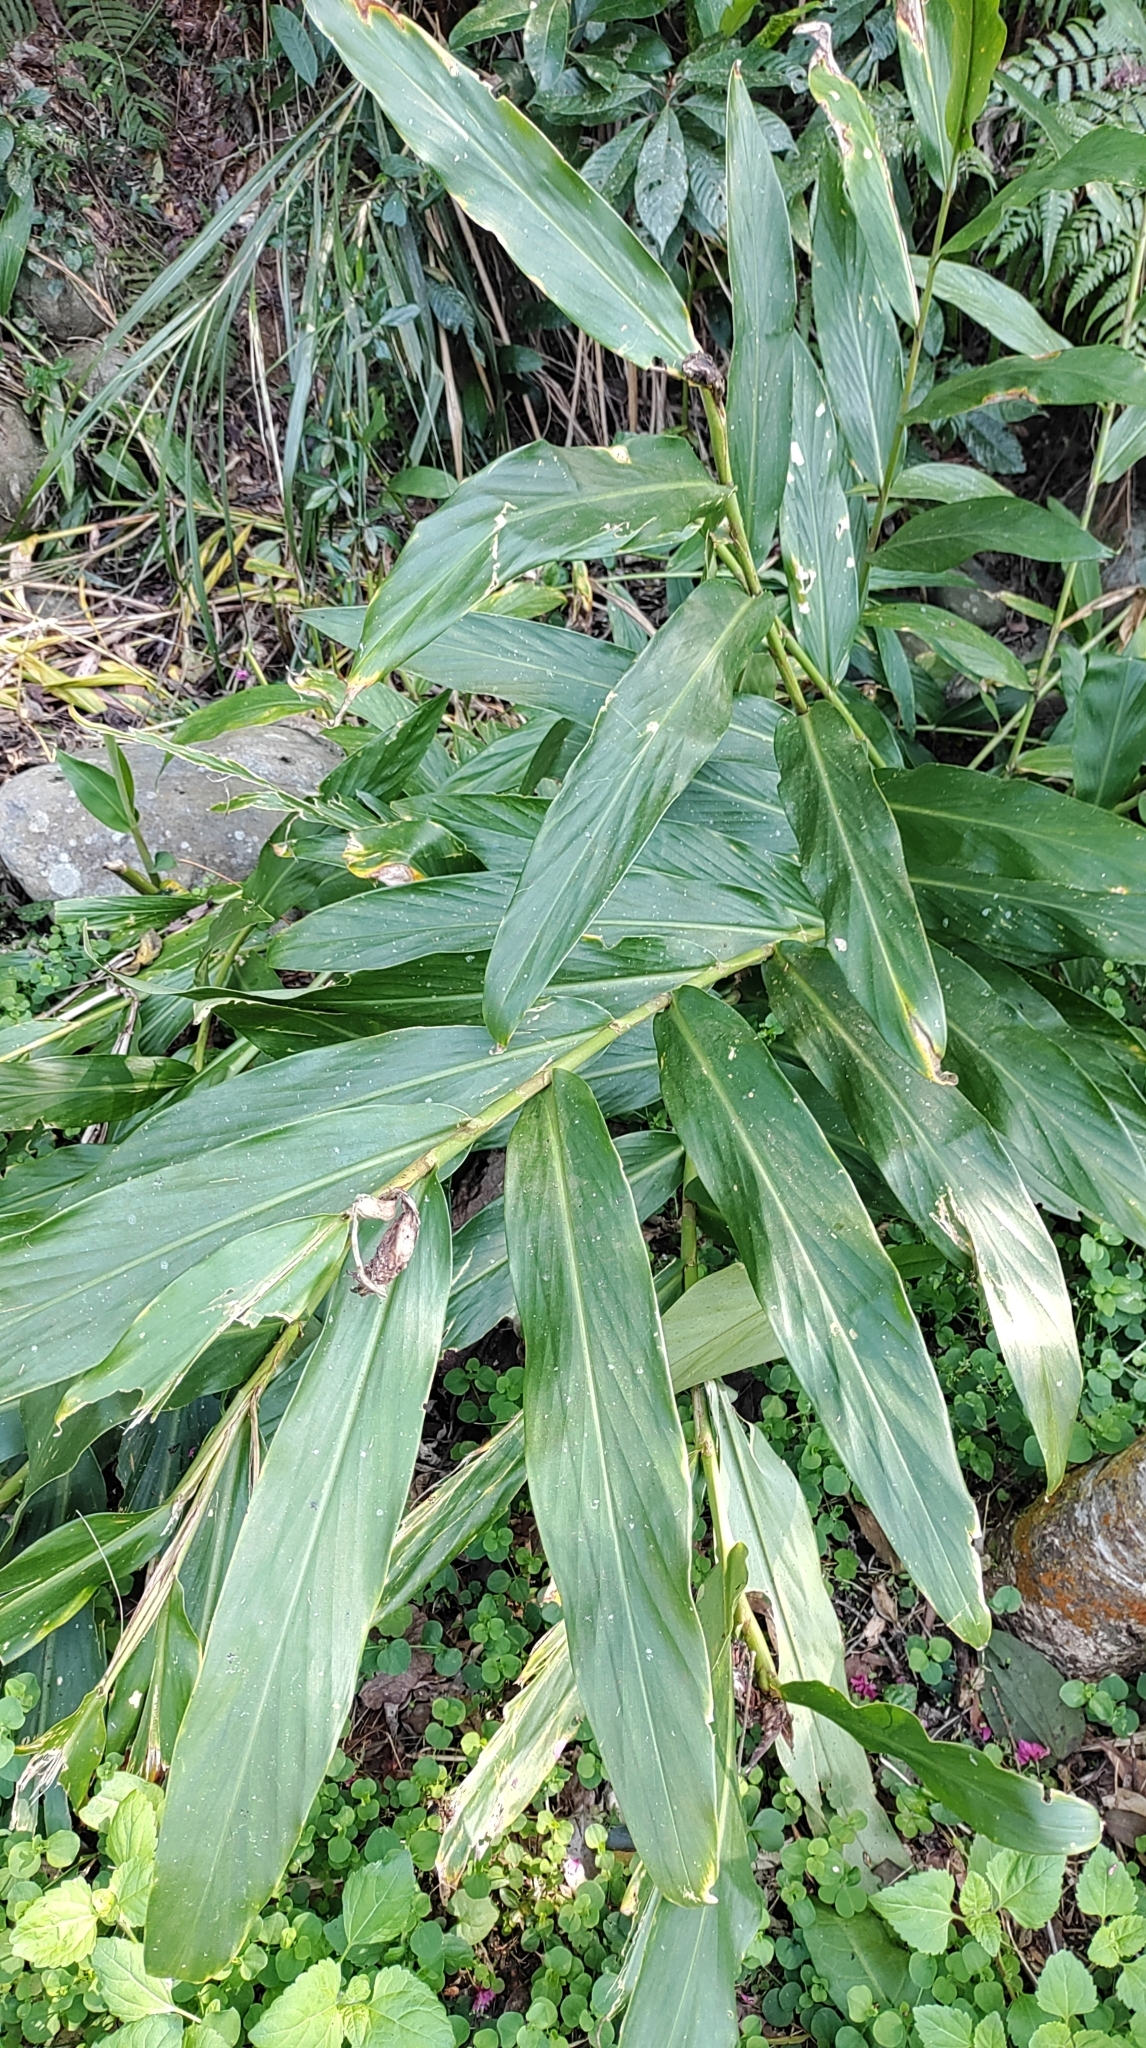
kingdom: Plantae
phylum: Tracheophyta
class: Liliopsida
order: Zingiberales
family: Zingiberaceae
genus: Hedychium
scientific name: Hedychium coronarium
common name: White garland-lily
